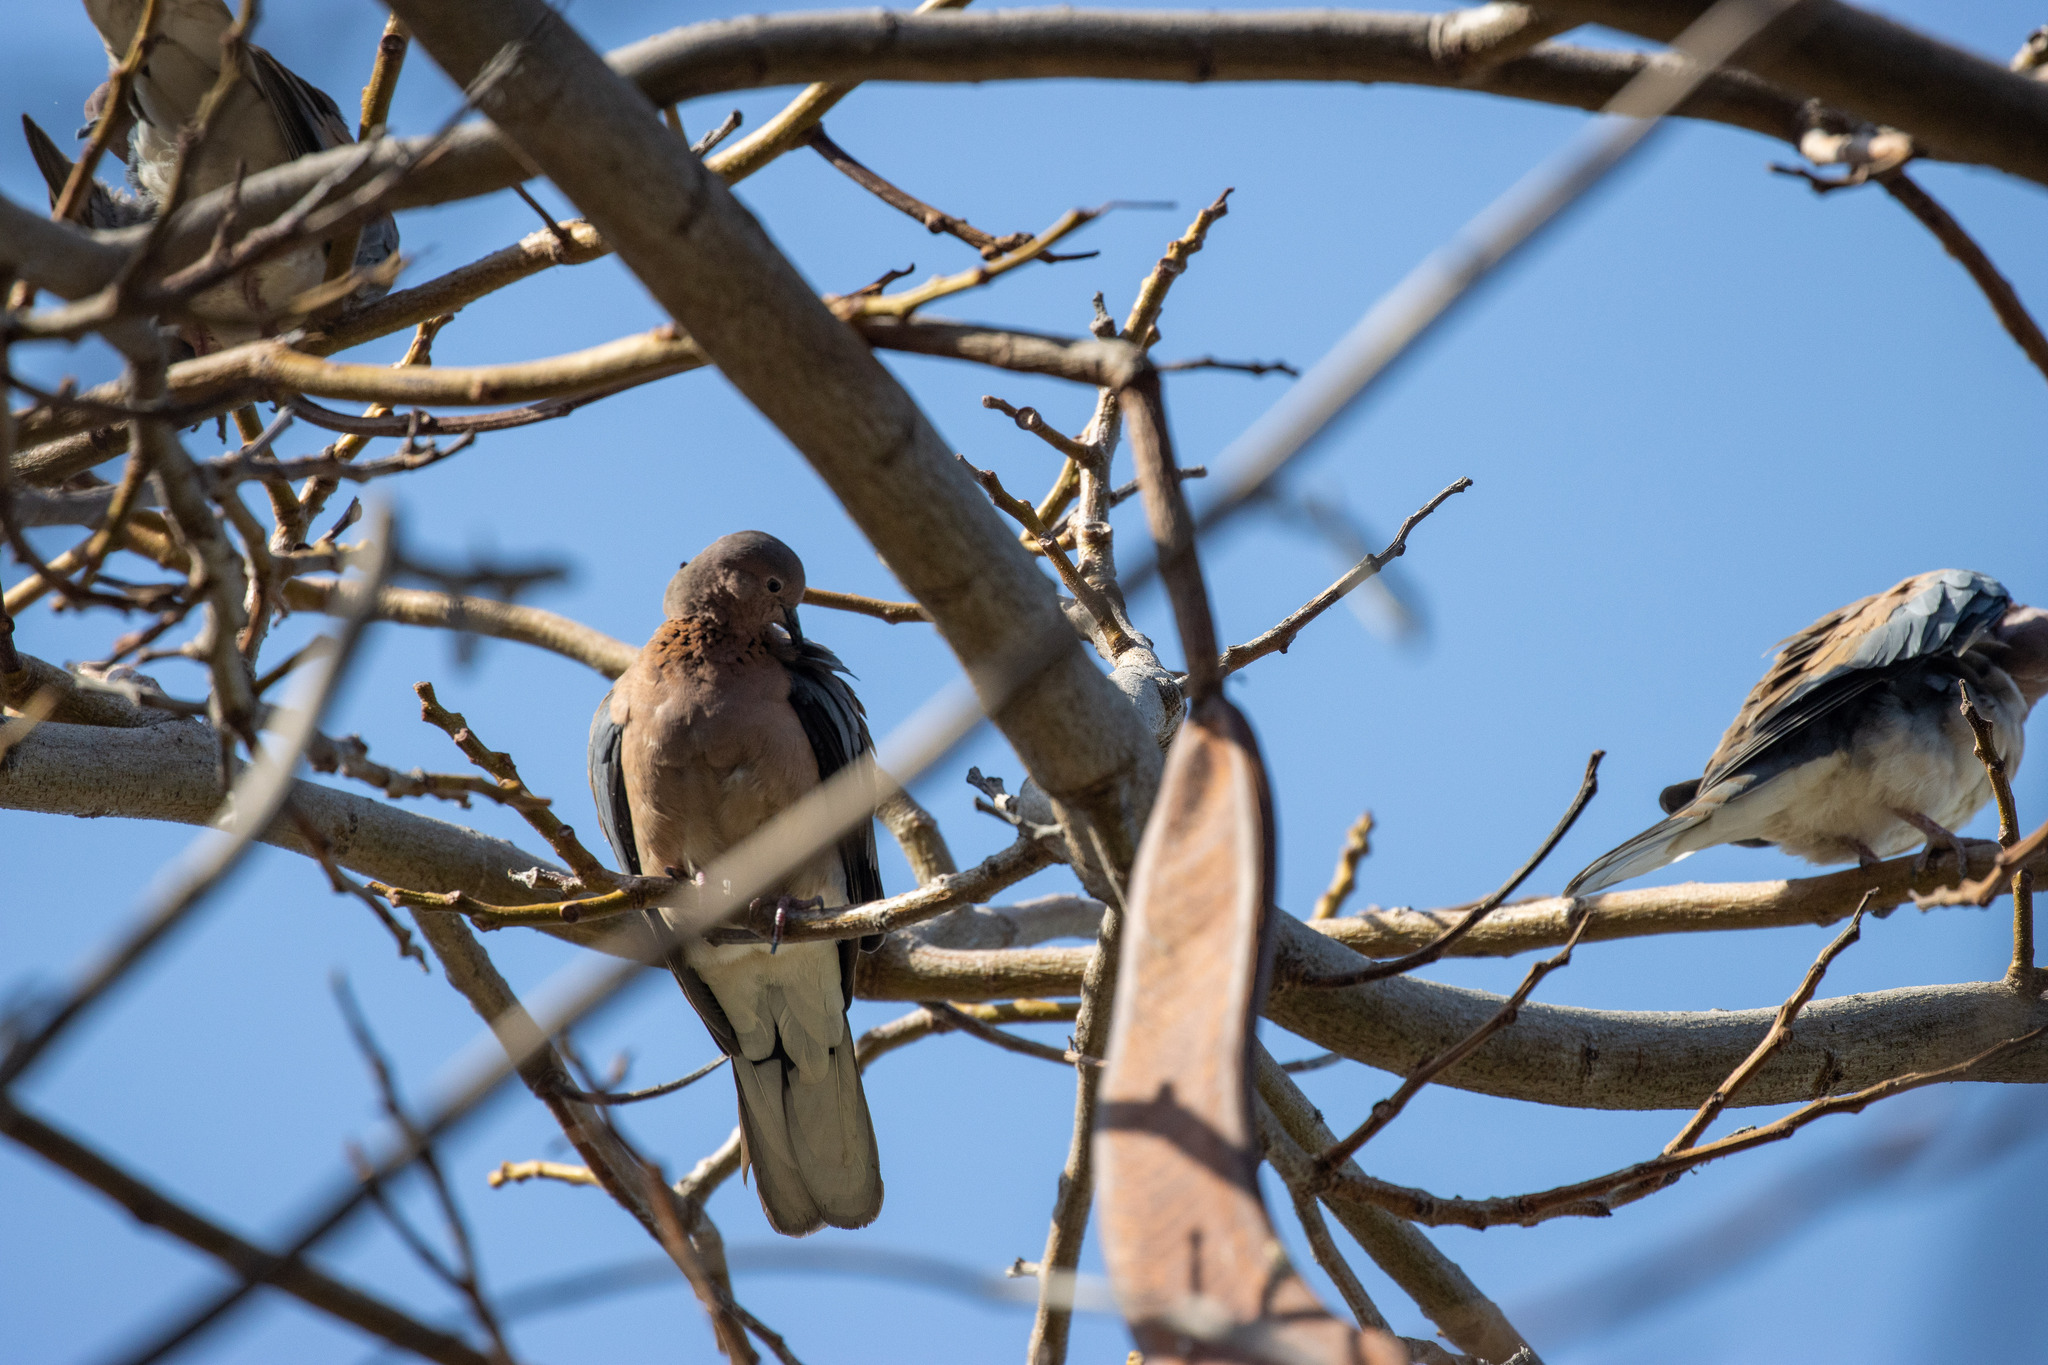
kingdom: Animalia
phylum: Chordata
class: Aves
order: Columbiformes
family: Columbidae
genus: Spilopelia
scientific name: Spilopelia senegalensis
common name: Laughing dove
